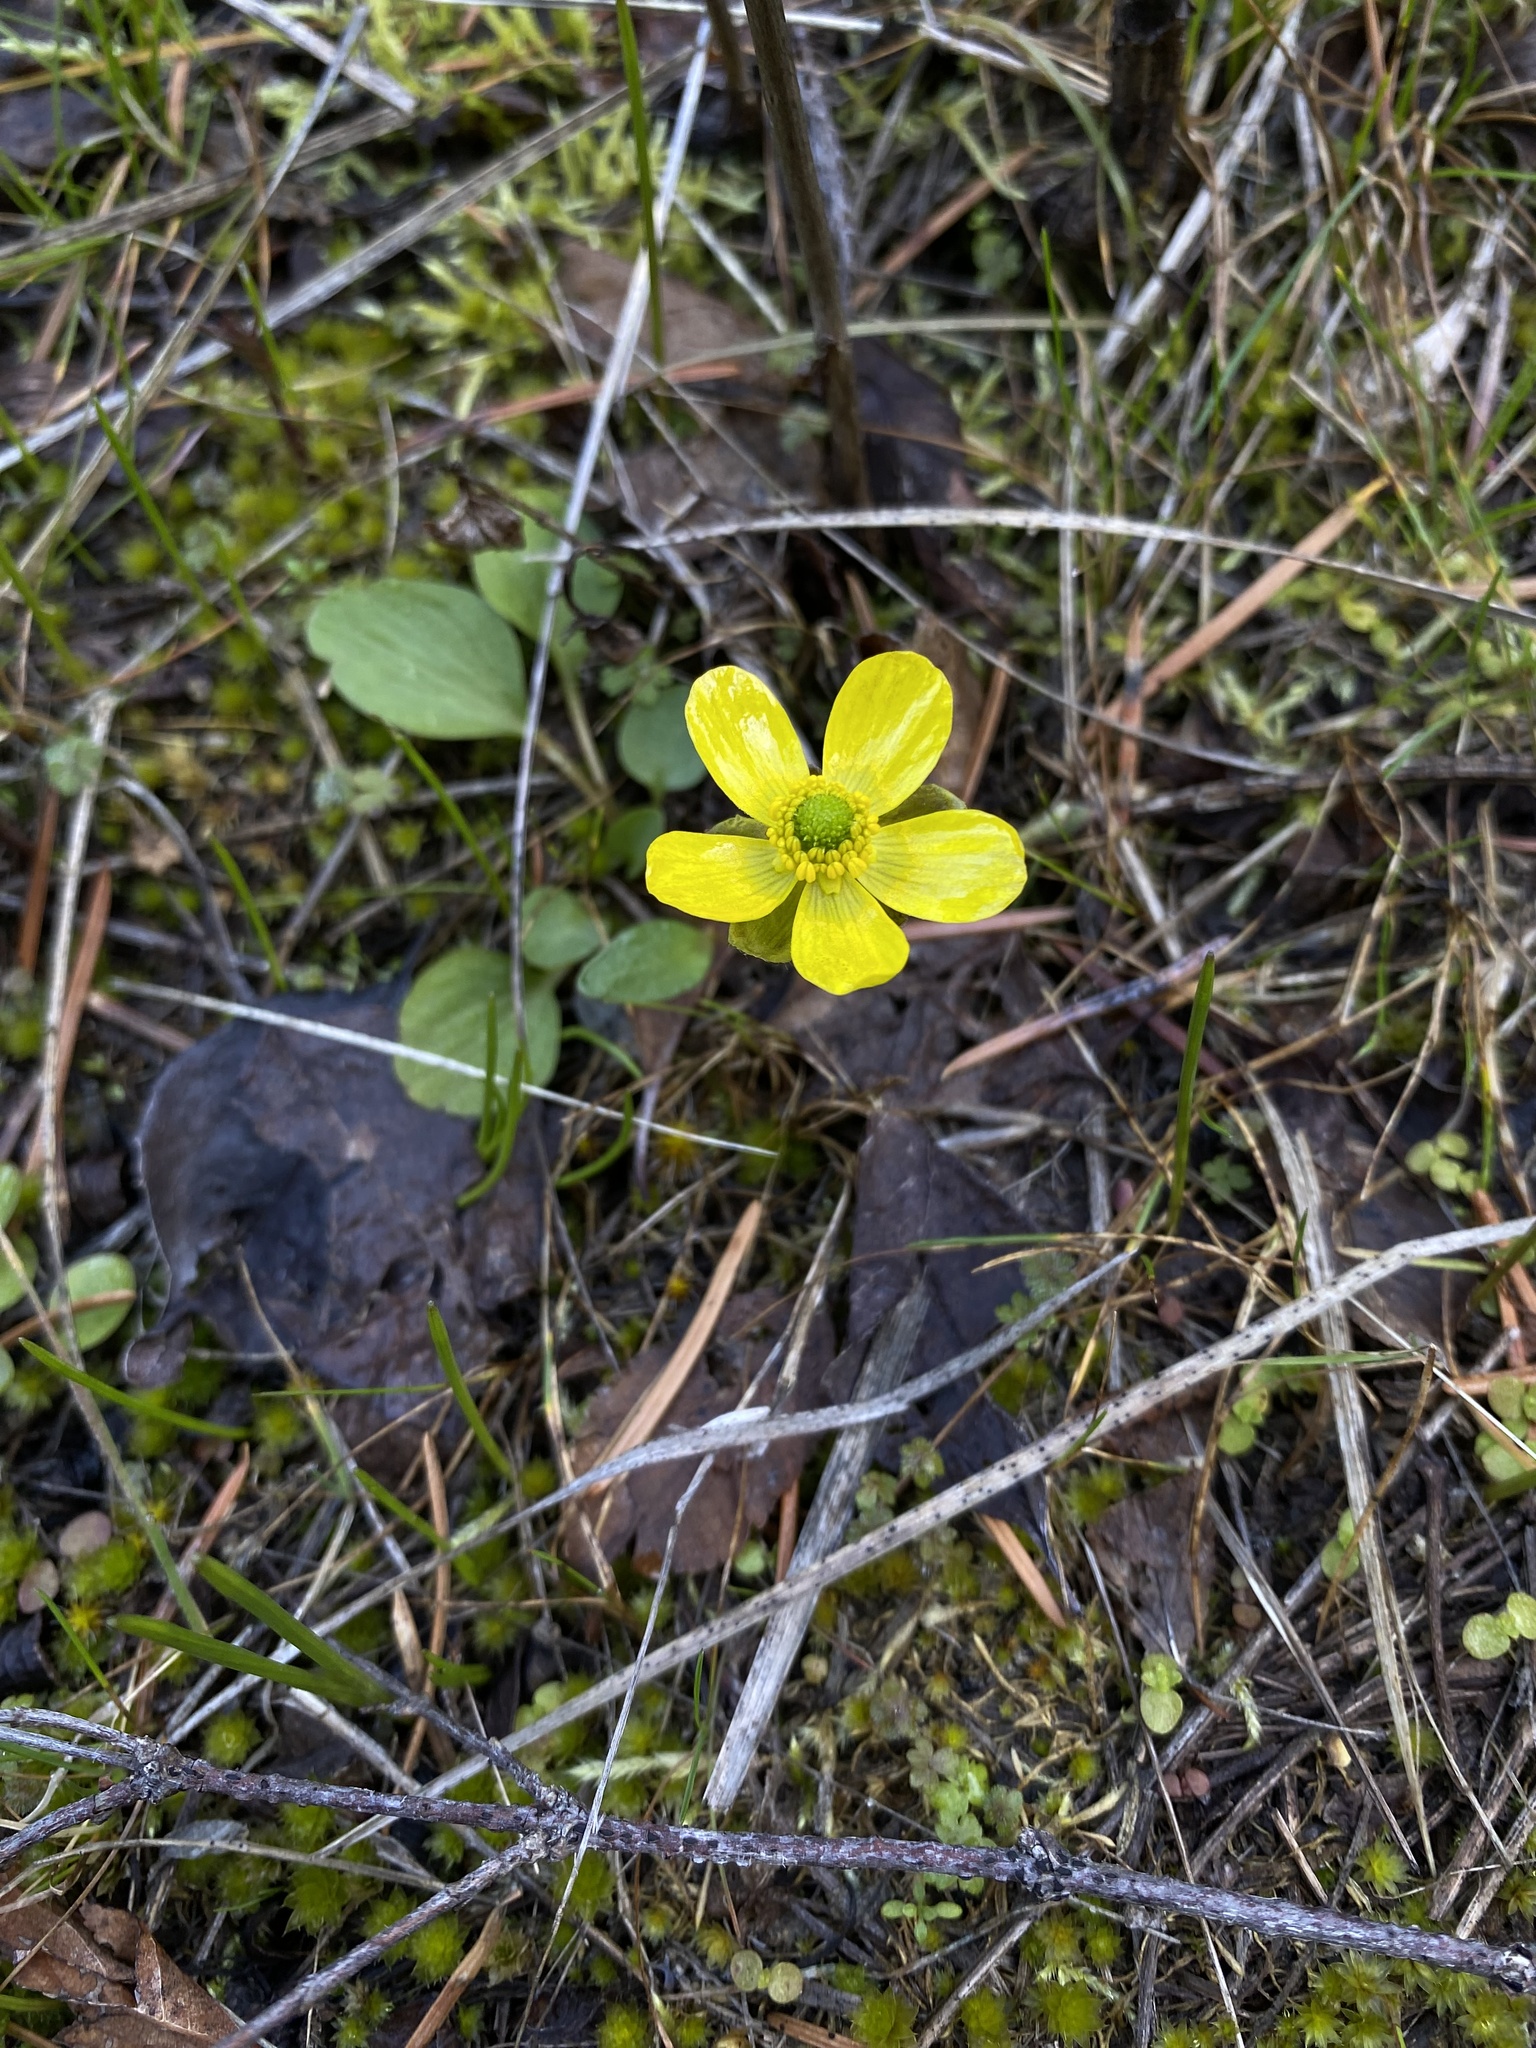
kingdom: Plantae
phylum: Tracheophyta
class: Magnoliopsida
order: Ranunculales
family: Ranunculaceae
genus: Ranunculus
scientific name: Ranunculus glaberrimus
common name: Sagebrush buttercup
